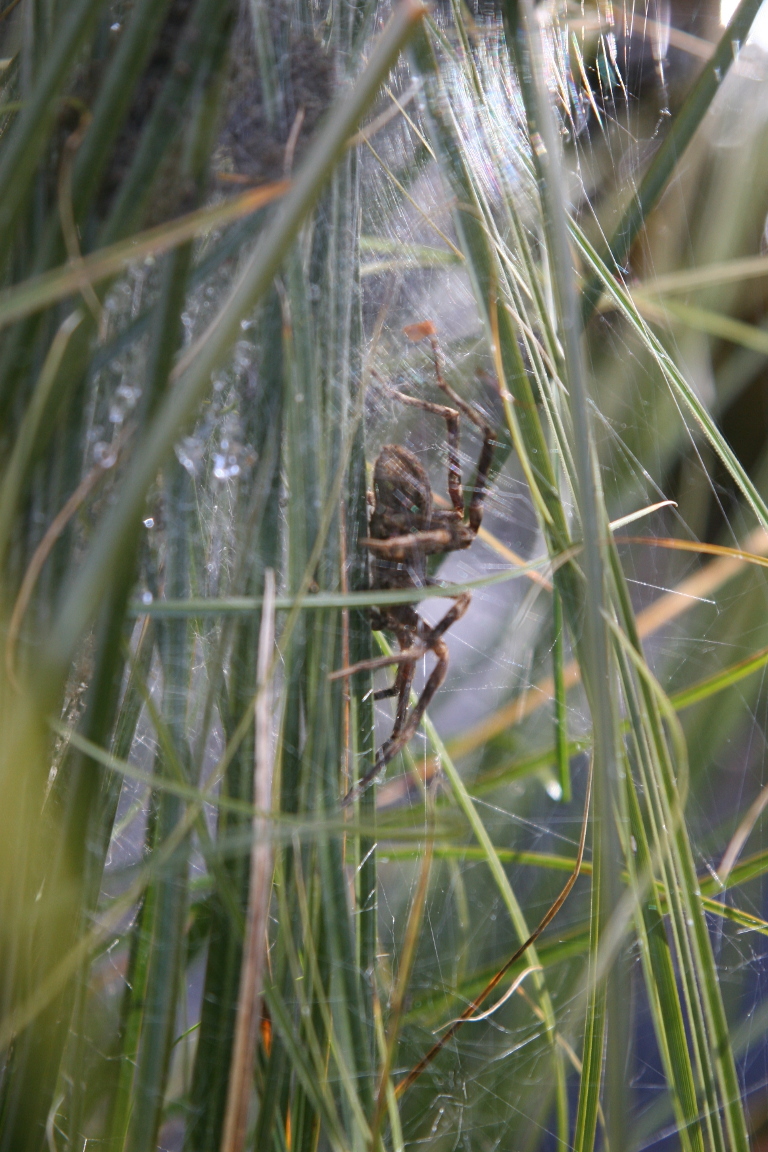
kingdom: Animalia
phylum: Arthropoda
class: Arachnida
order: Araneae
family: Pisauridae
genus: Dolomedes
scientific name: Dolomedes dondalei
